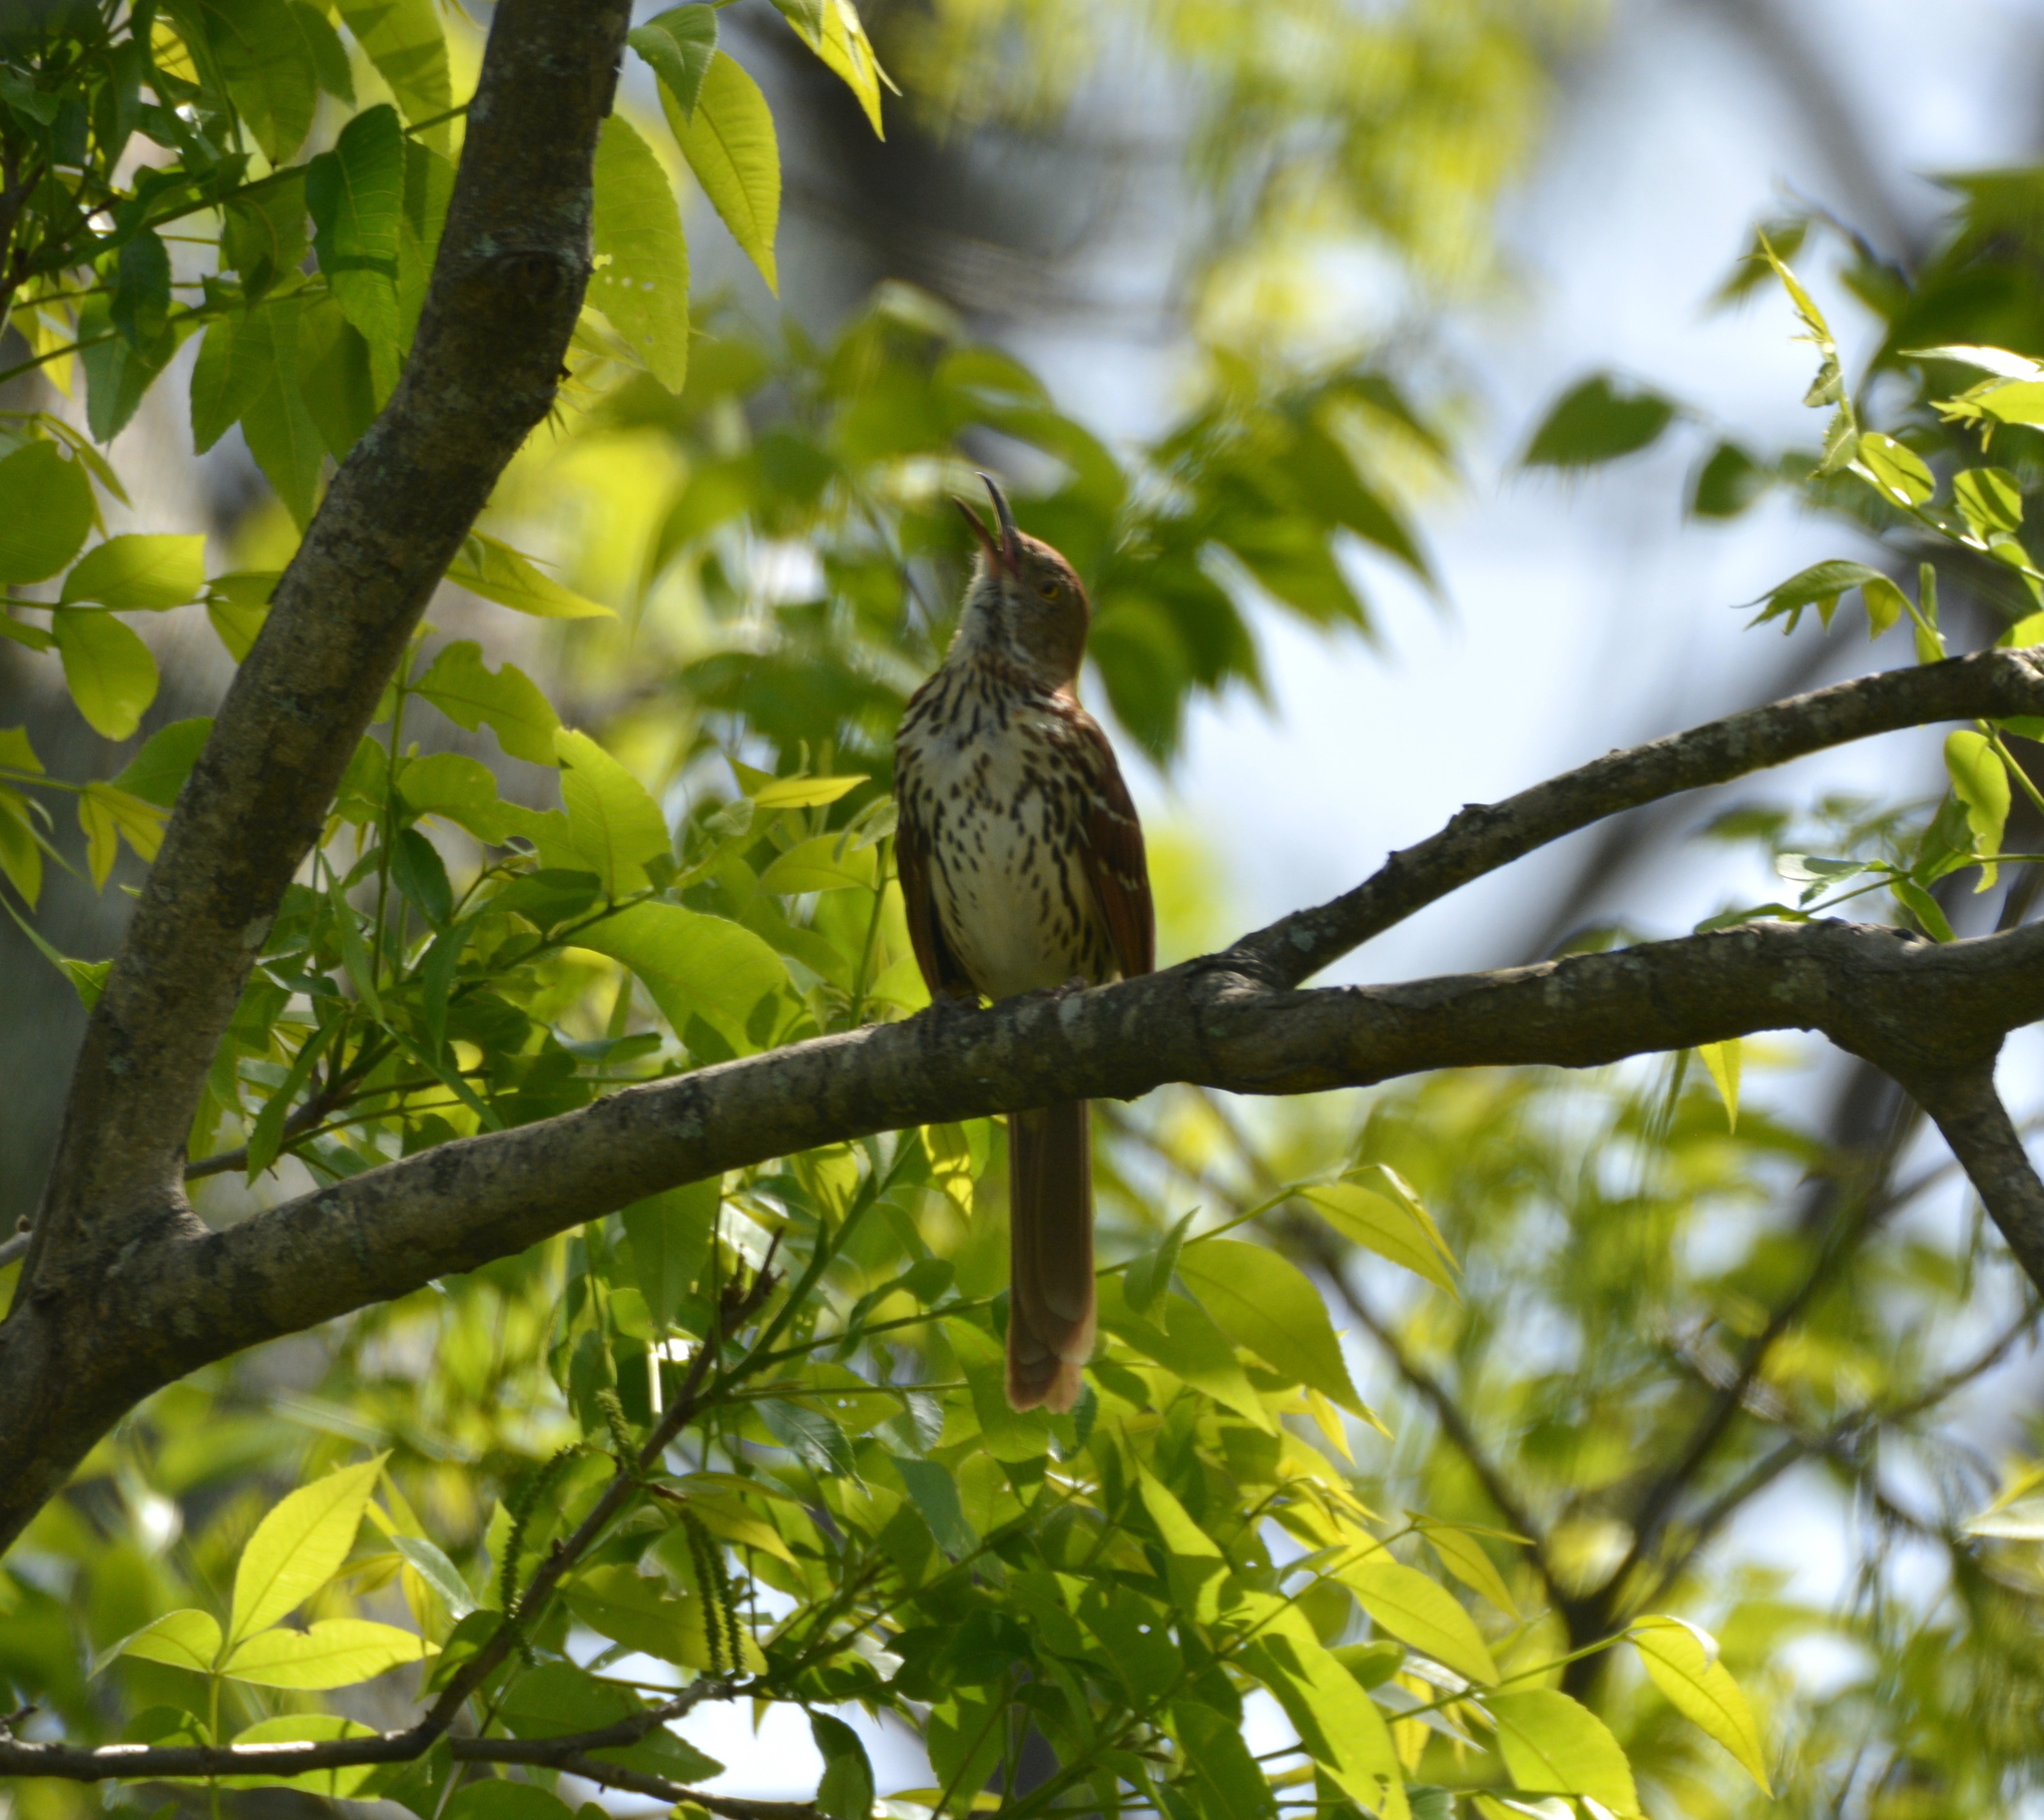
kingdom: Animalia
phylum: Chordata
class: Aves
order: Passeriformes
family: Mimidae
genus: Toxostoma
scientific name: Toxostoma rufum
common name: Brown thrasher
